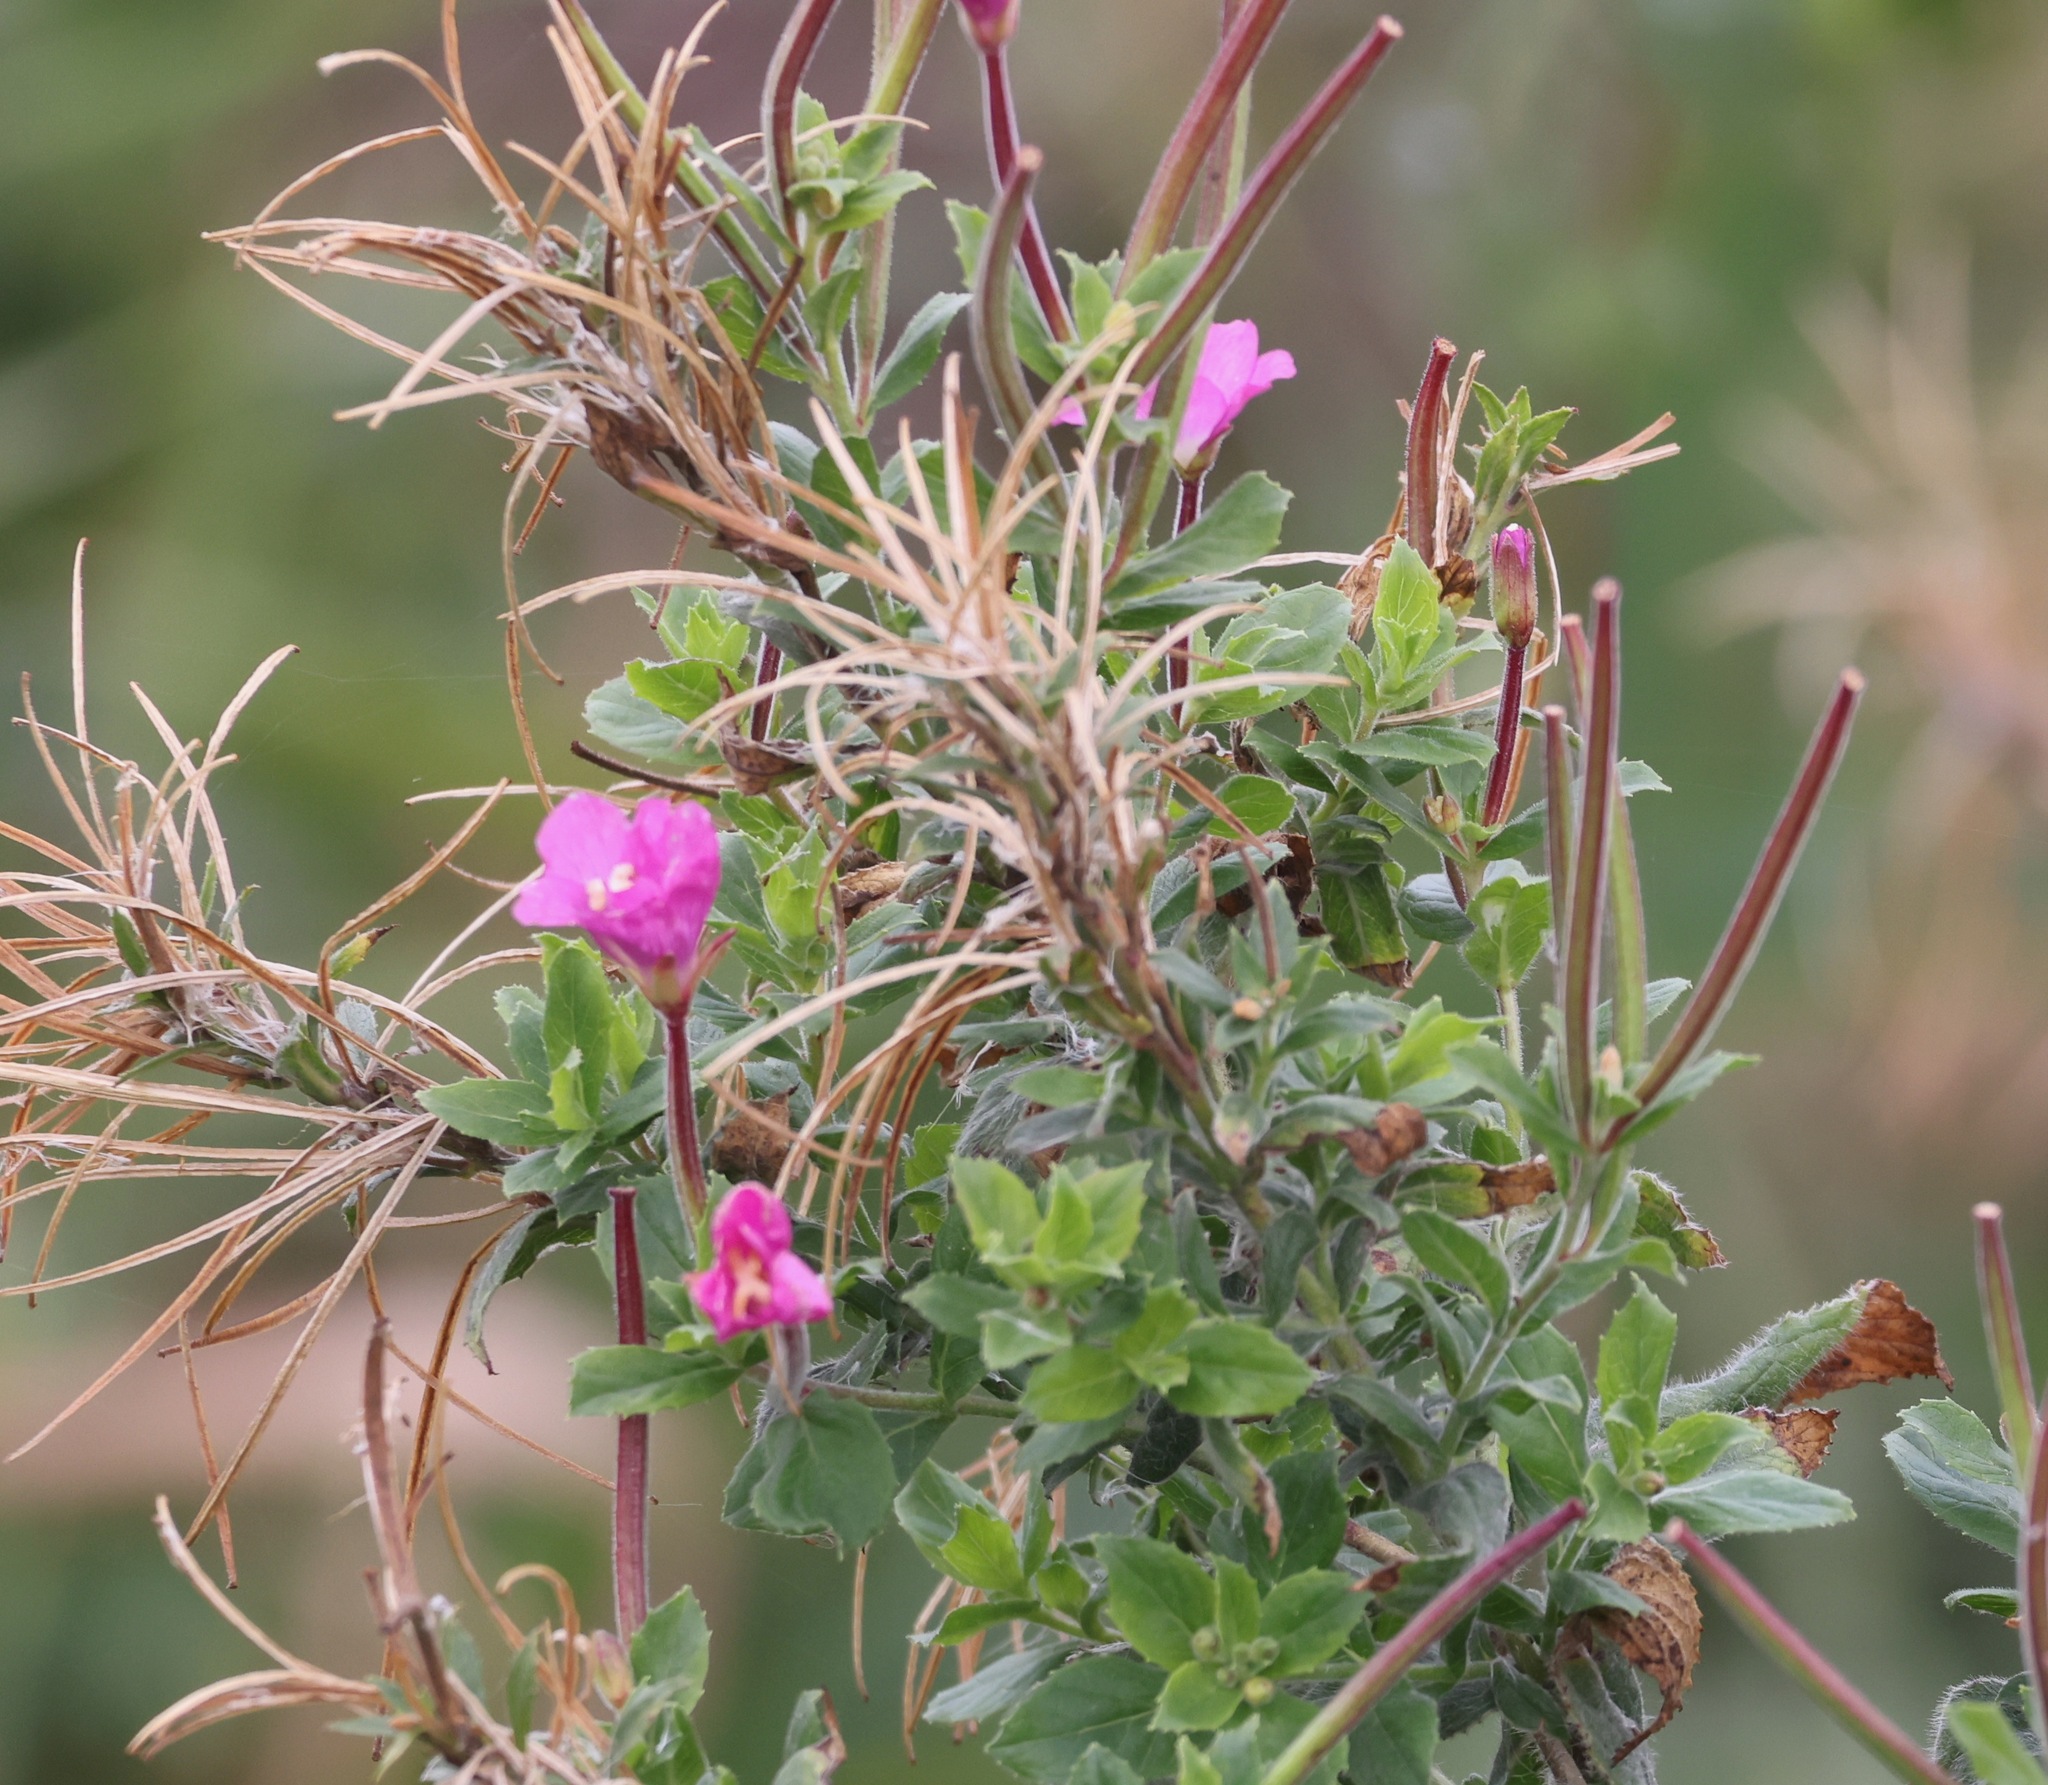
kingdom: Plantae
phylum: Tracheophyta
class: Magnoliopsida
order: Myrtales
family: Onagraceae
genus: Epilobium
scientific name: Epilobium hirsutum
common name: Great willowherb
